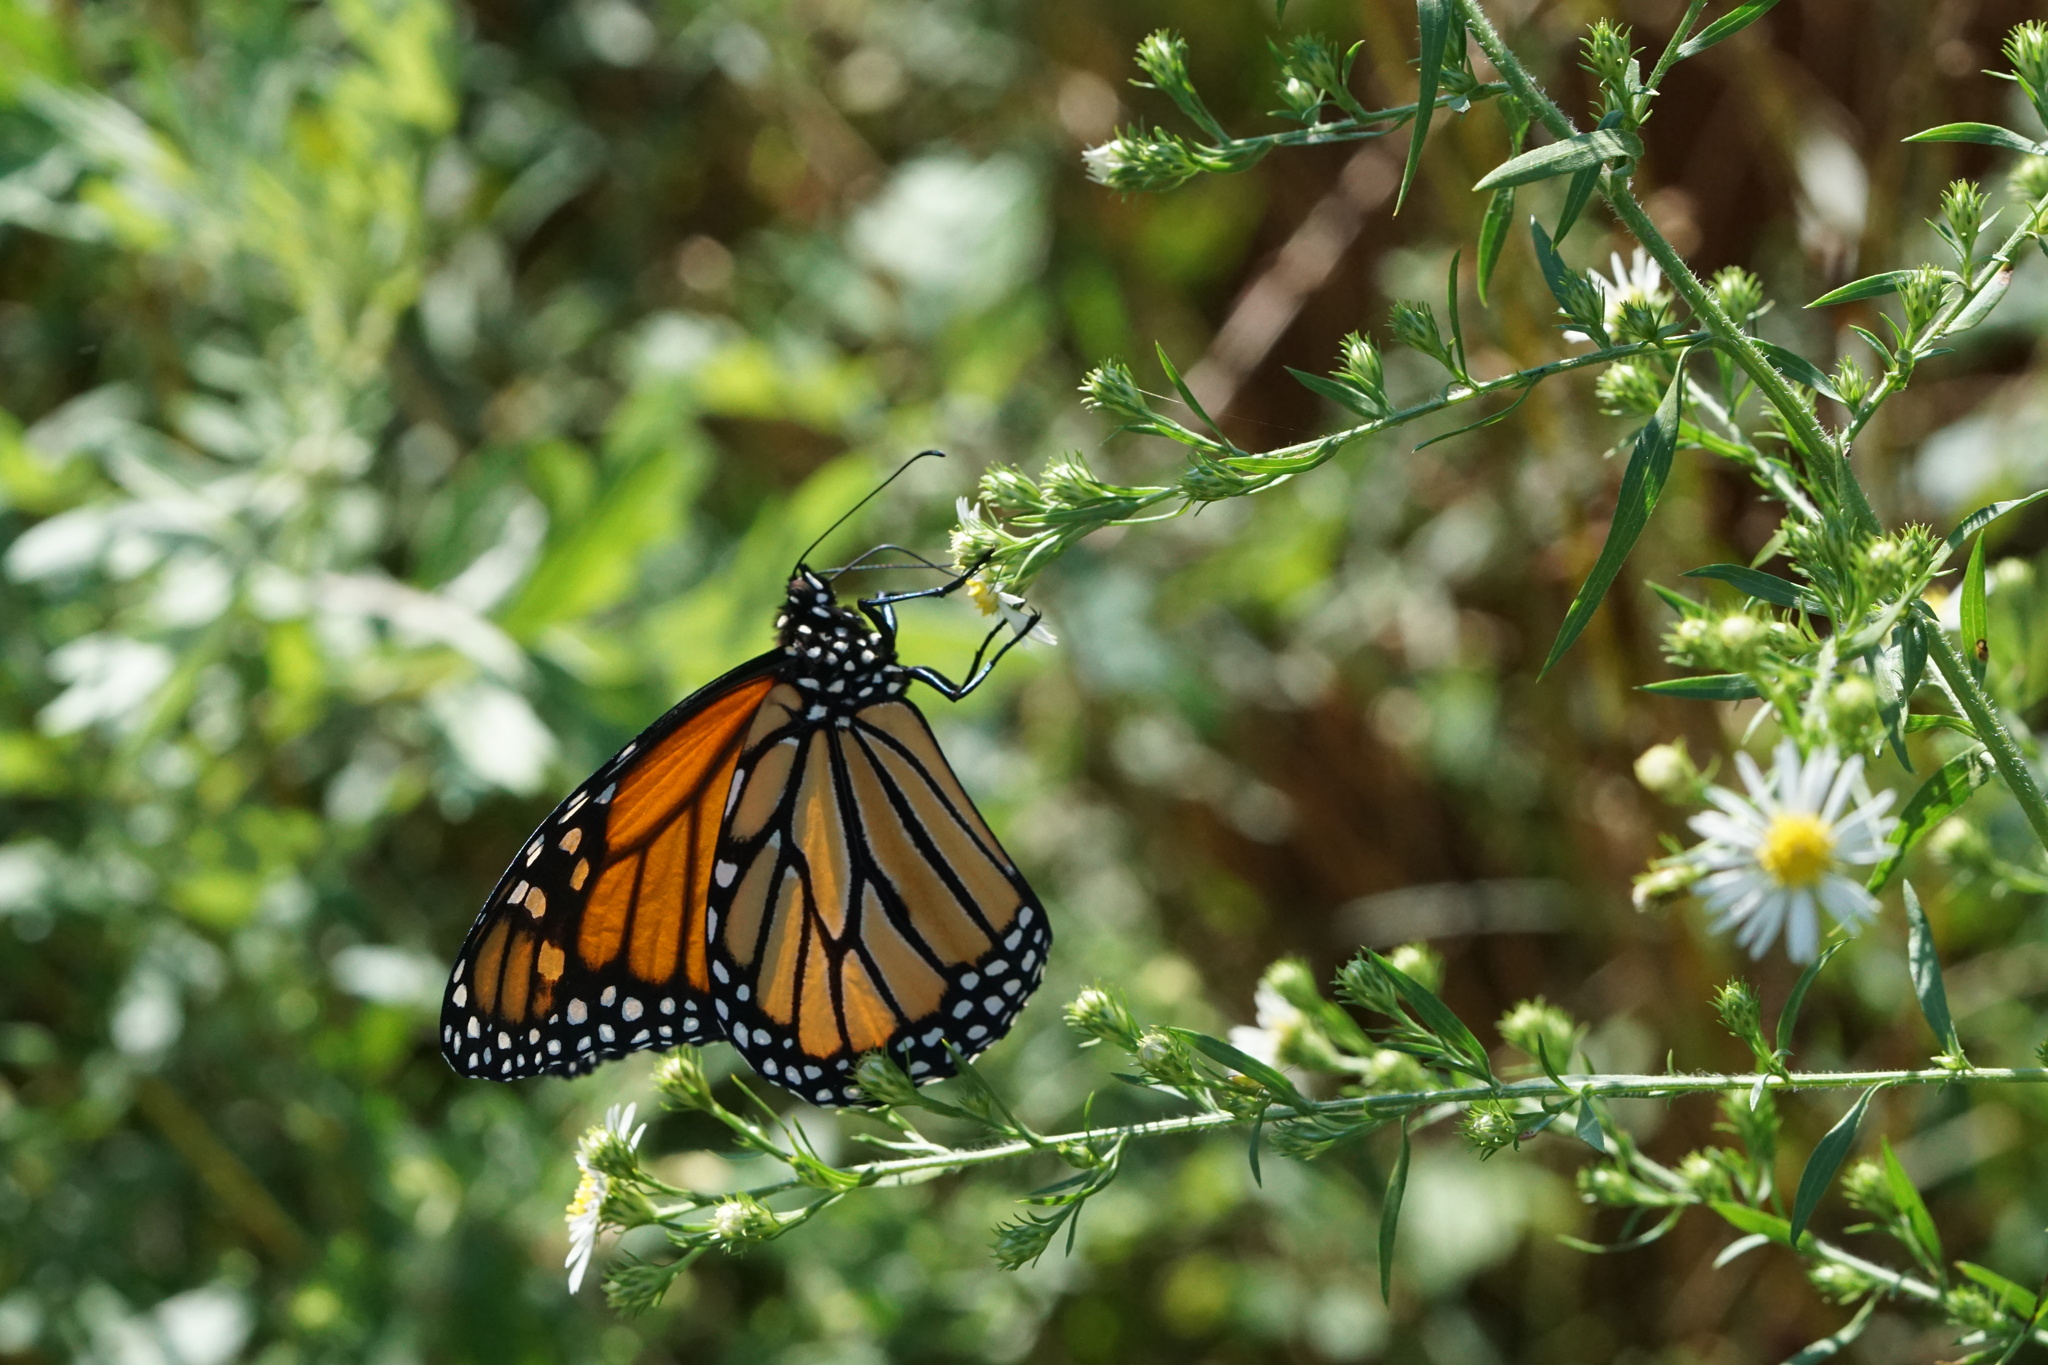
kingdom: Animalia
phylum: Arthropoda
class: Insecta
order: Lepidoptera
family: Nymphalidae
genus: Danaus
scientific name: Danaus plexippus
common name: Monarch
